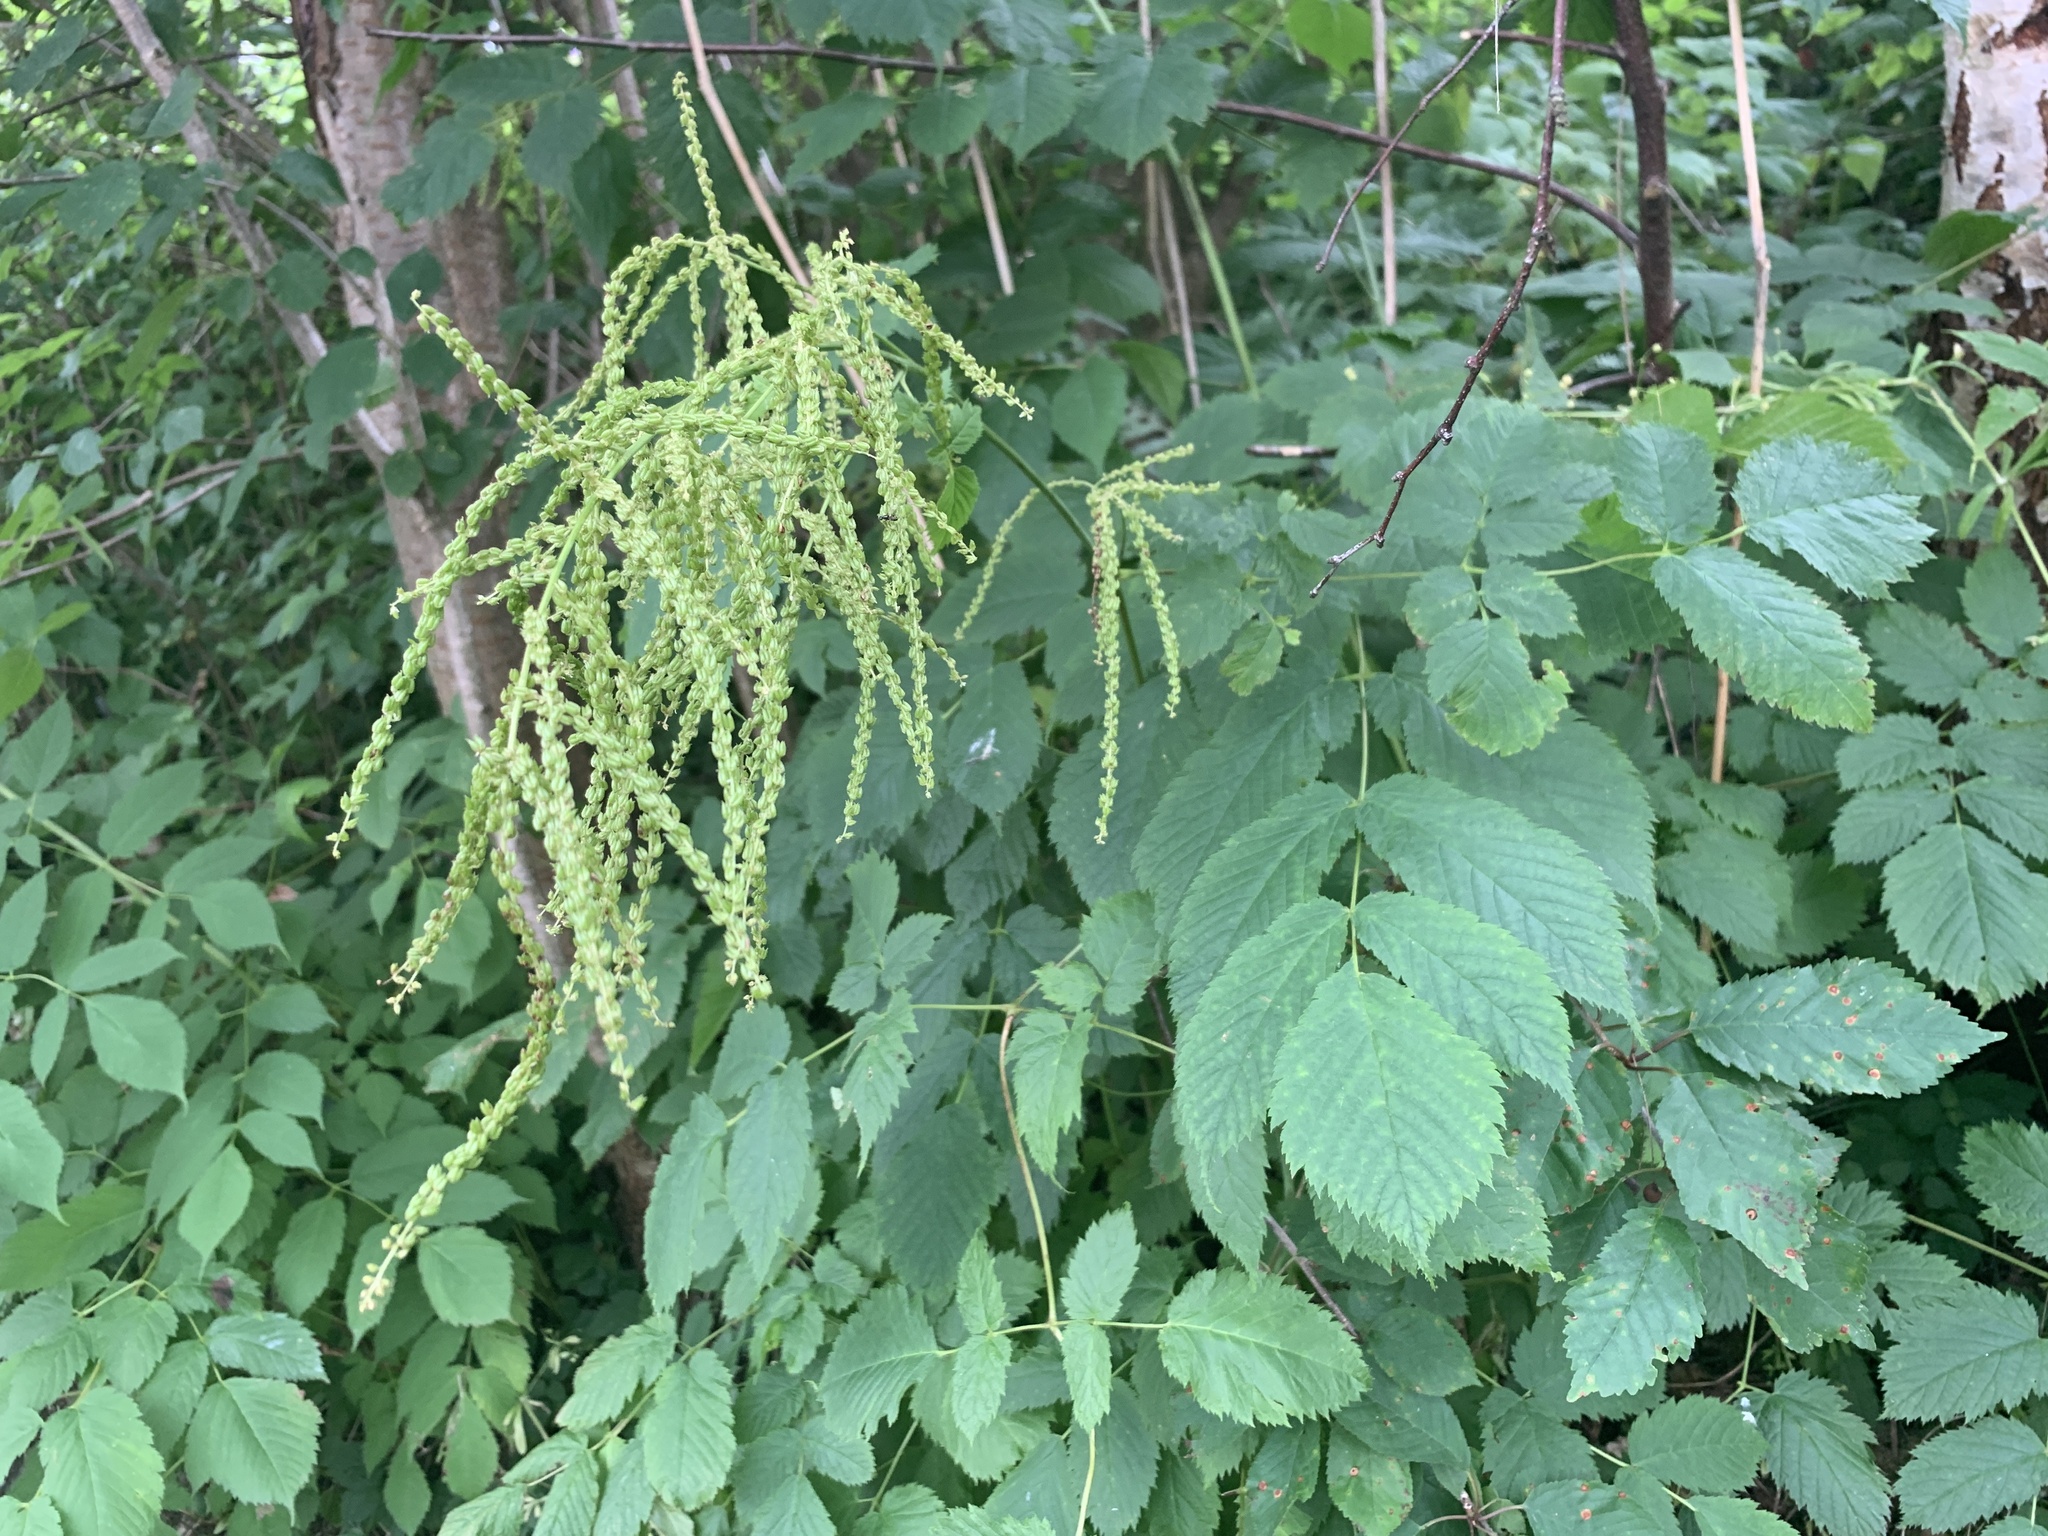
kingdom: Plantae
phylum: Tracheophyta
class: Magnoliopsida
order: Rosales
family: Rosaceae
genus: Aruncus
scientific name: Aruncus dioicus
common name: Buck's-beard
